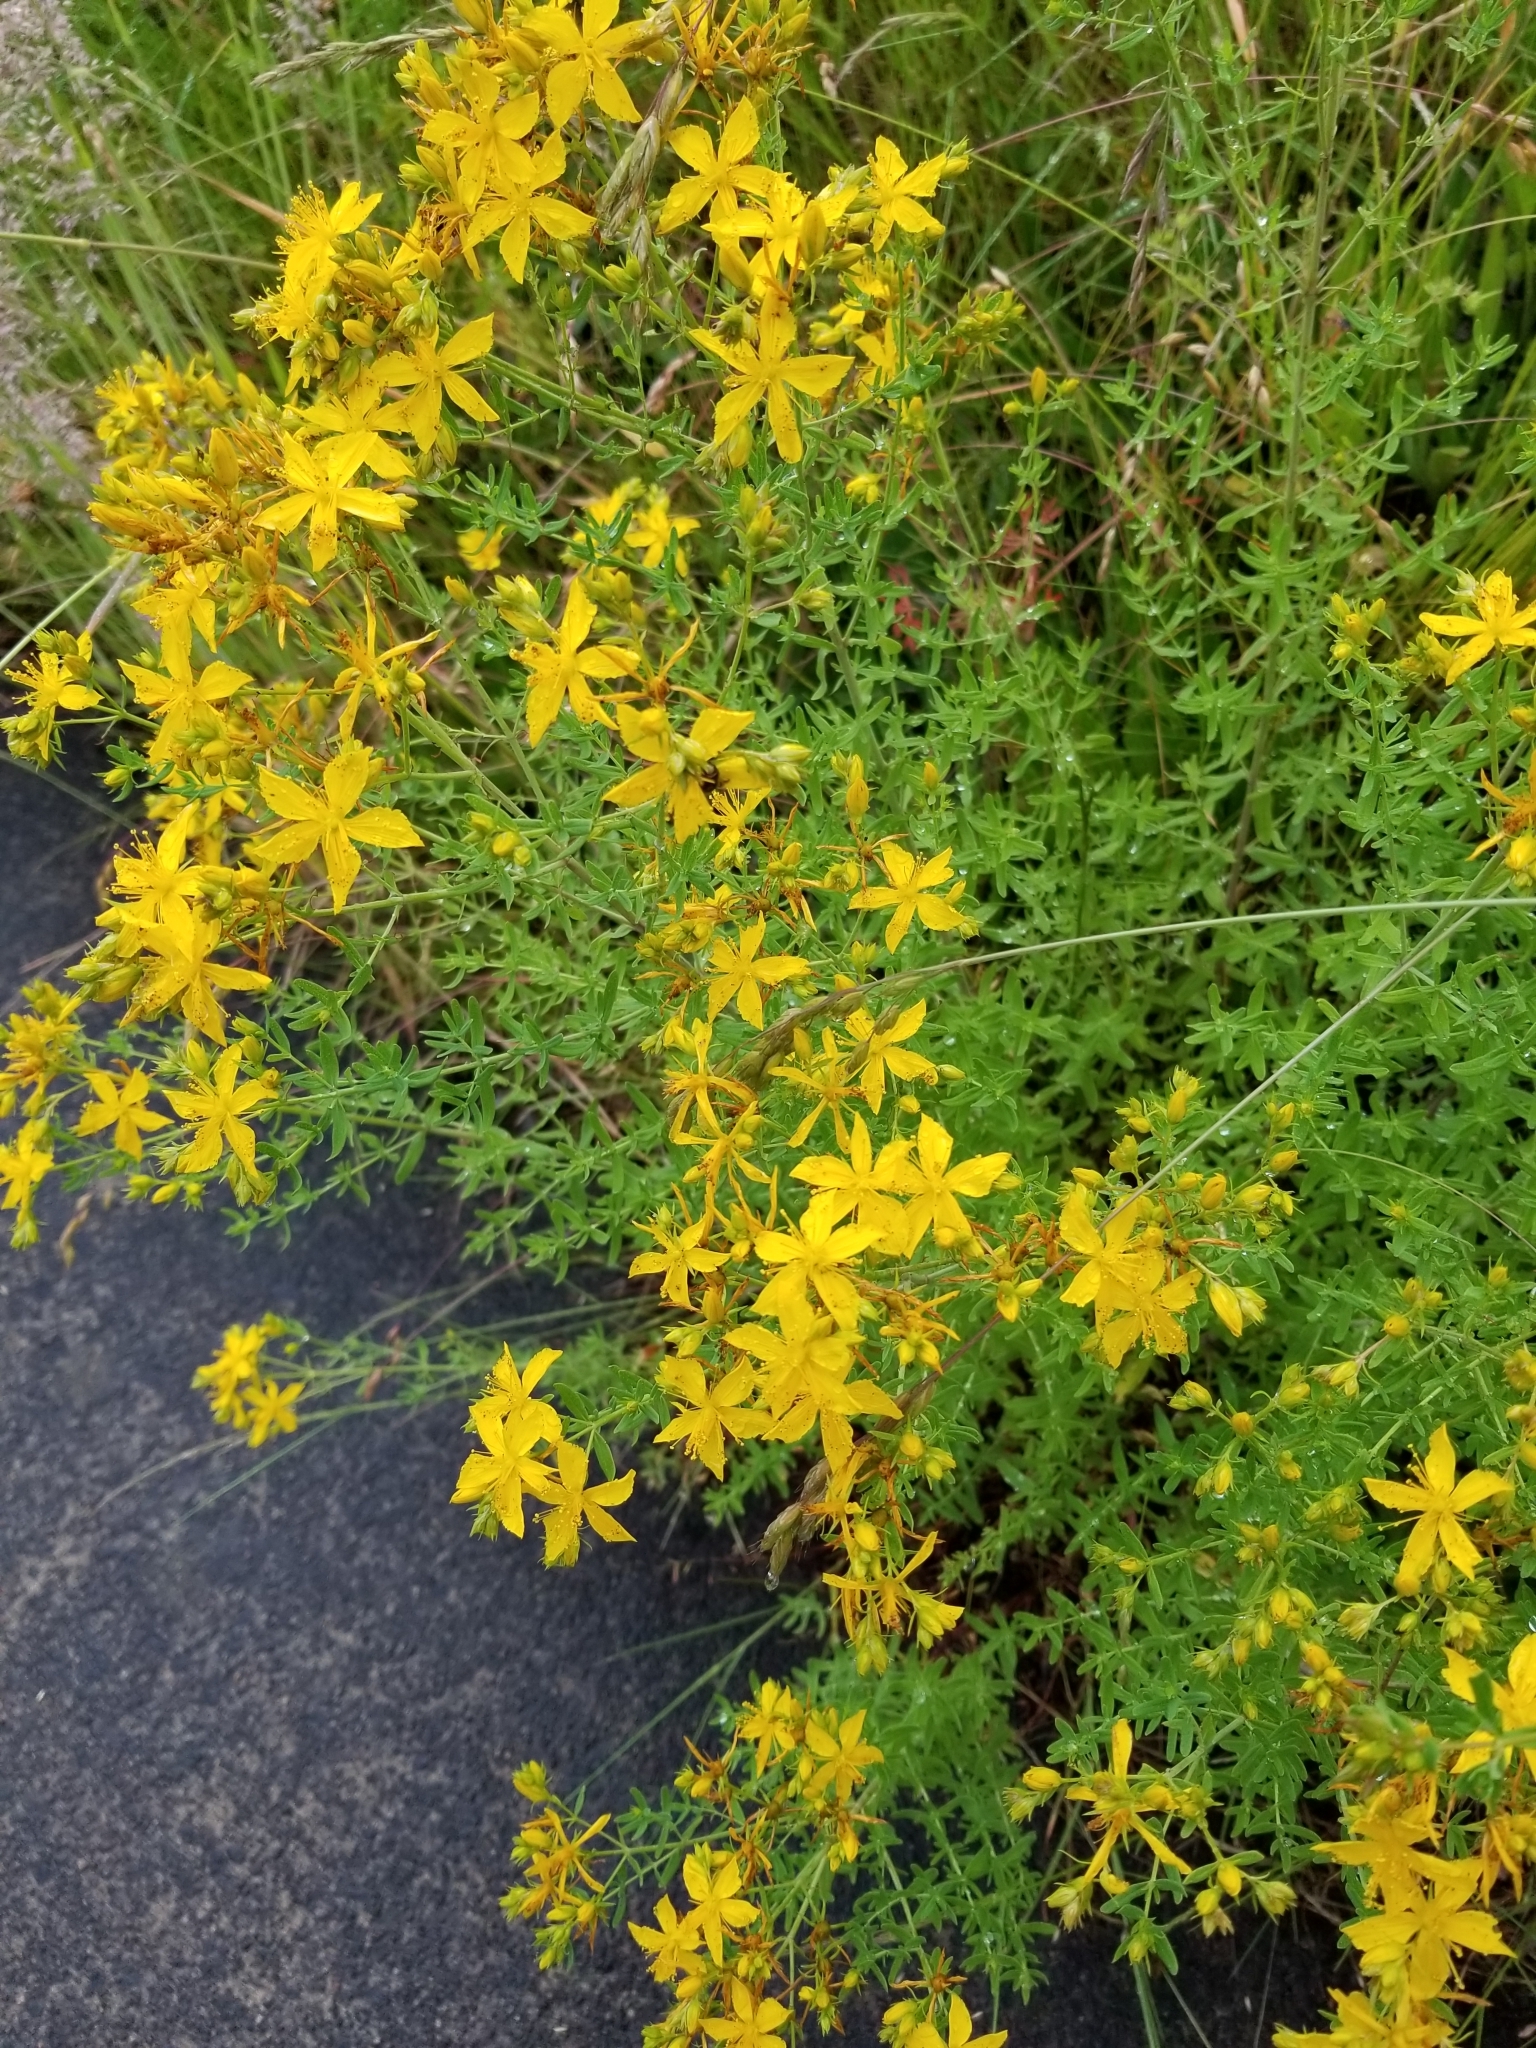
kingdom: Plantae
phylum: Tracheophyta
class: Magnoliopsida
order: Malpighiales
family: Hypericaceae
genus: Hypericum
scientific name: Hypericum perforatum
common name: Common st. johnswort
